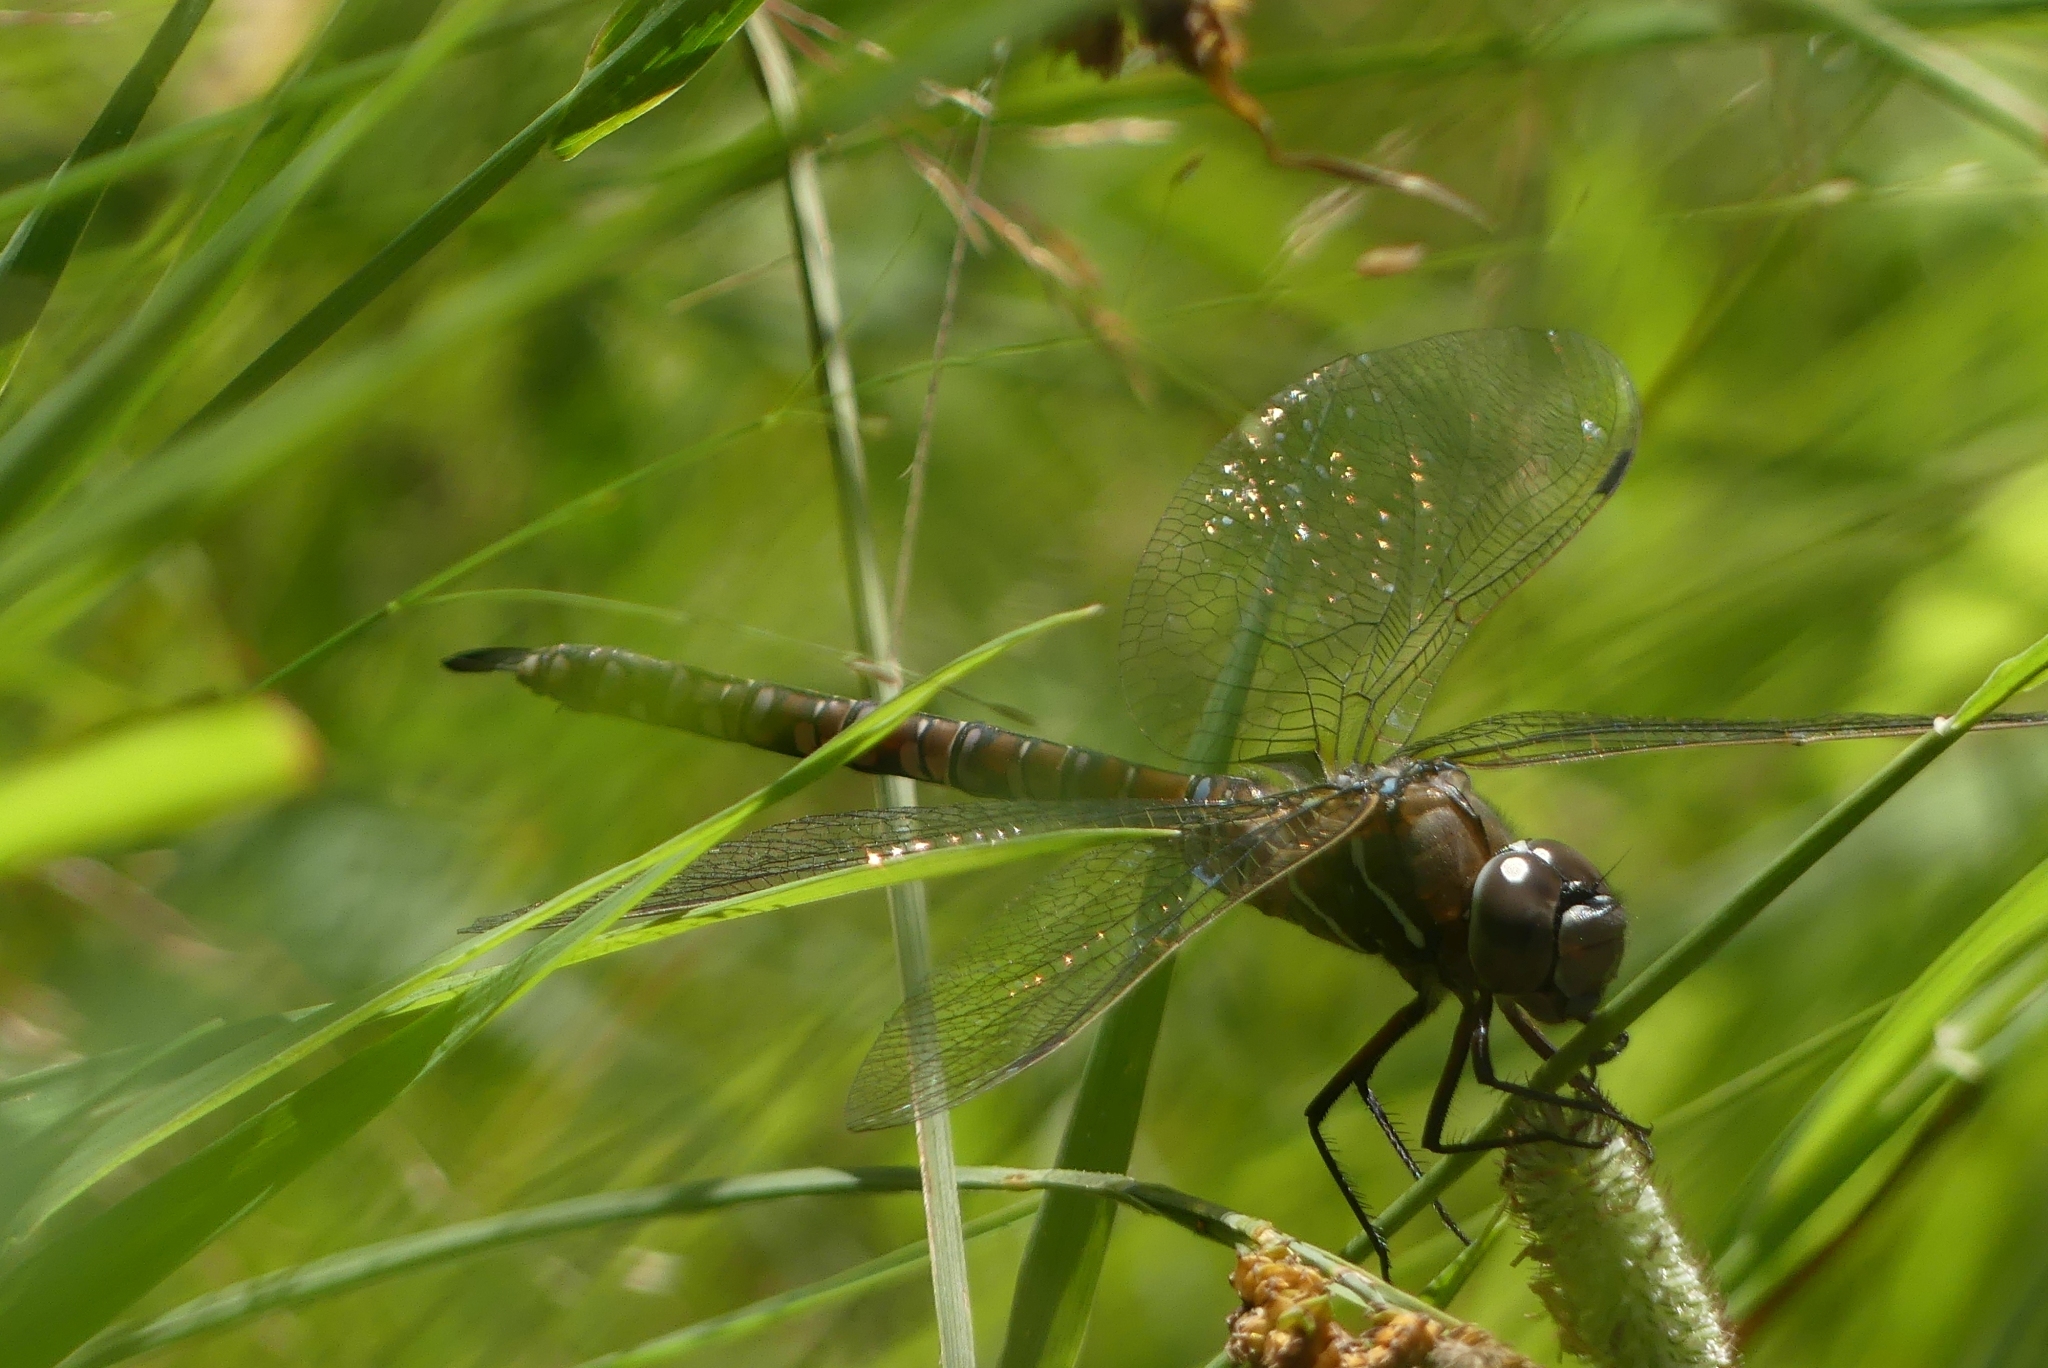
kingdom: Animalia
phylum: Arthropoda
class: Insecta
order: Odonata
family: Aeshnidae
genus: Aeshna
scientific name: Aeshna interrupta
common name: Variable darner
